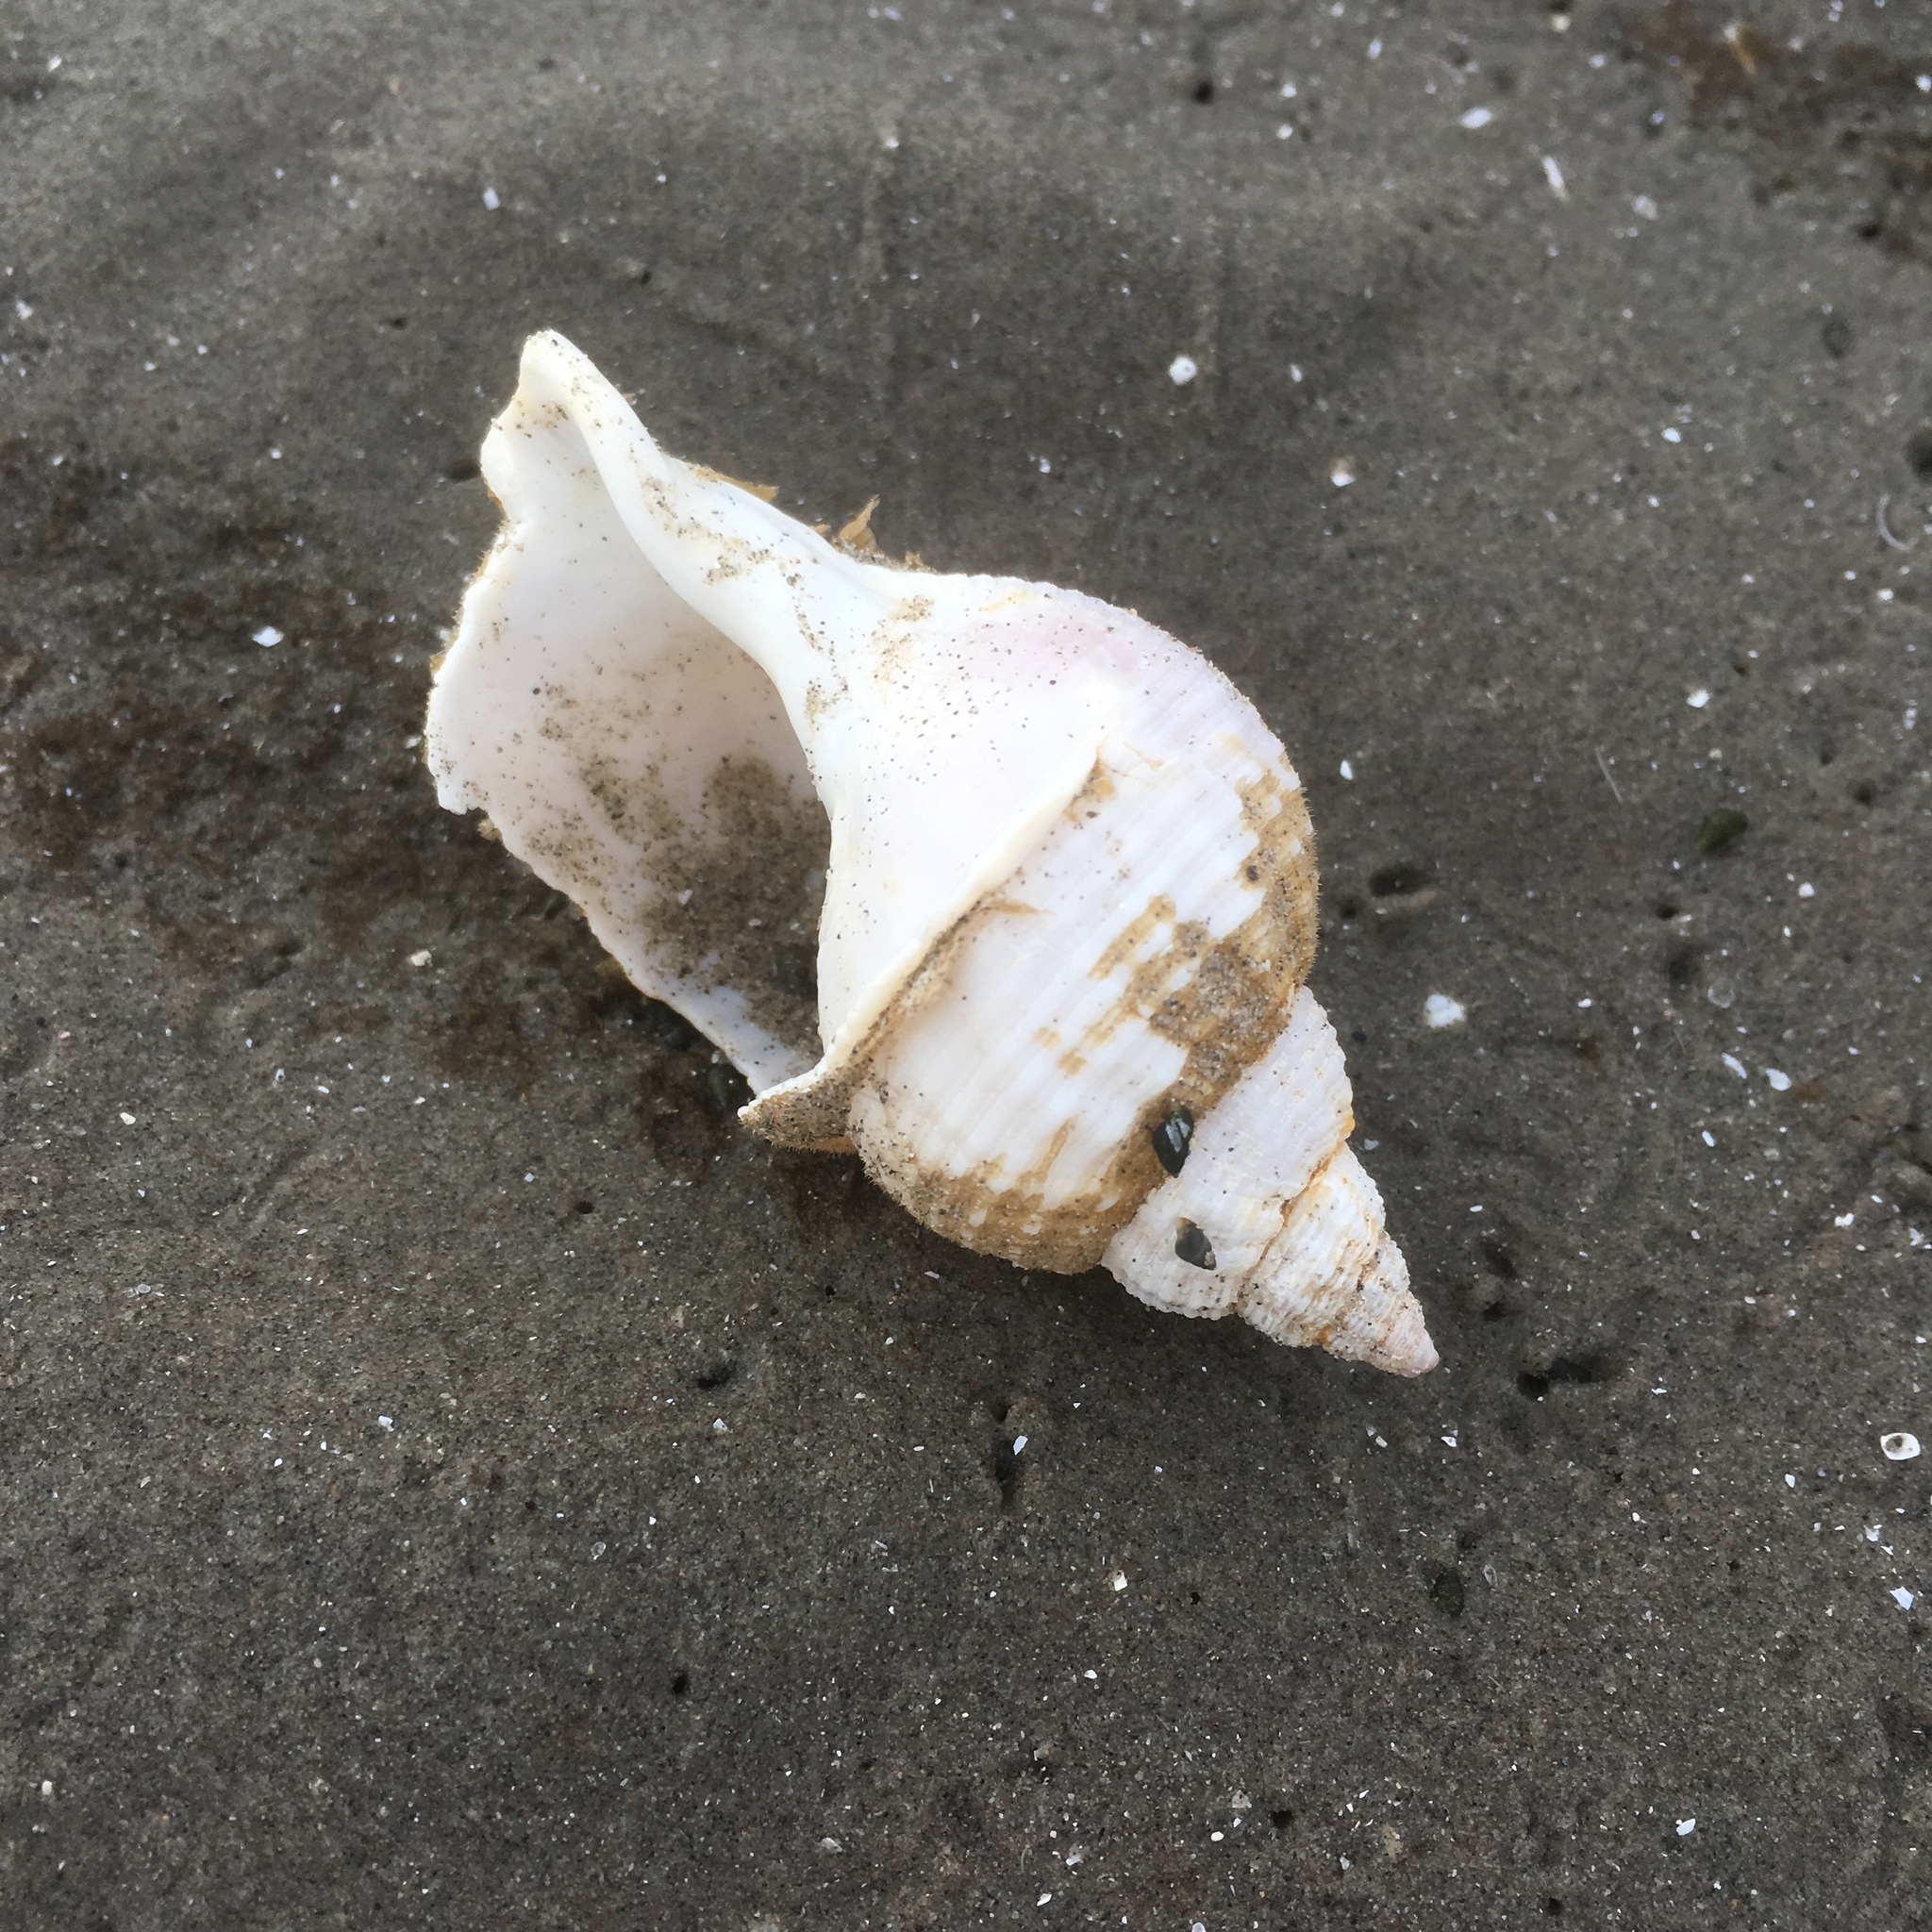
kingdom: Animalia
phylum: Mollusca
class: Gastropoda
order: Neogastropoda
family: Buccinidae
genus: Buccinum
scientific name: Buccinum undatum
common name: Common whelk
